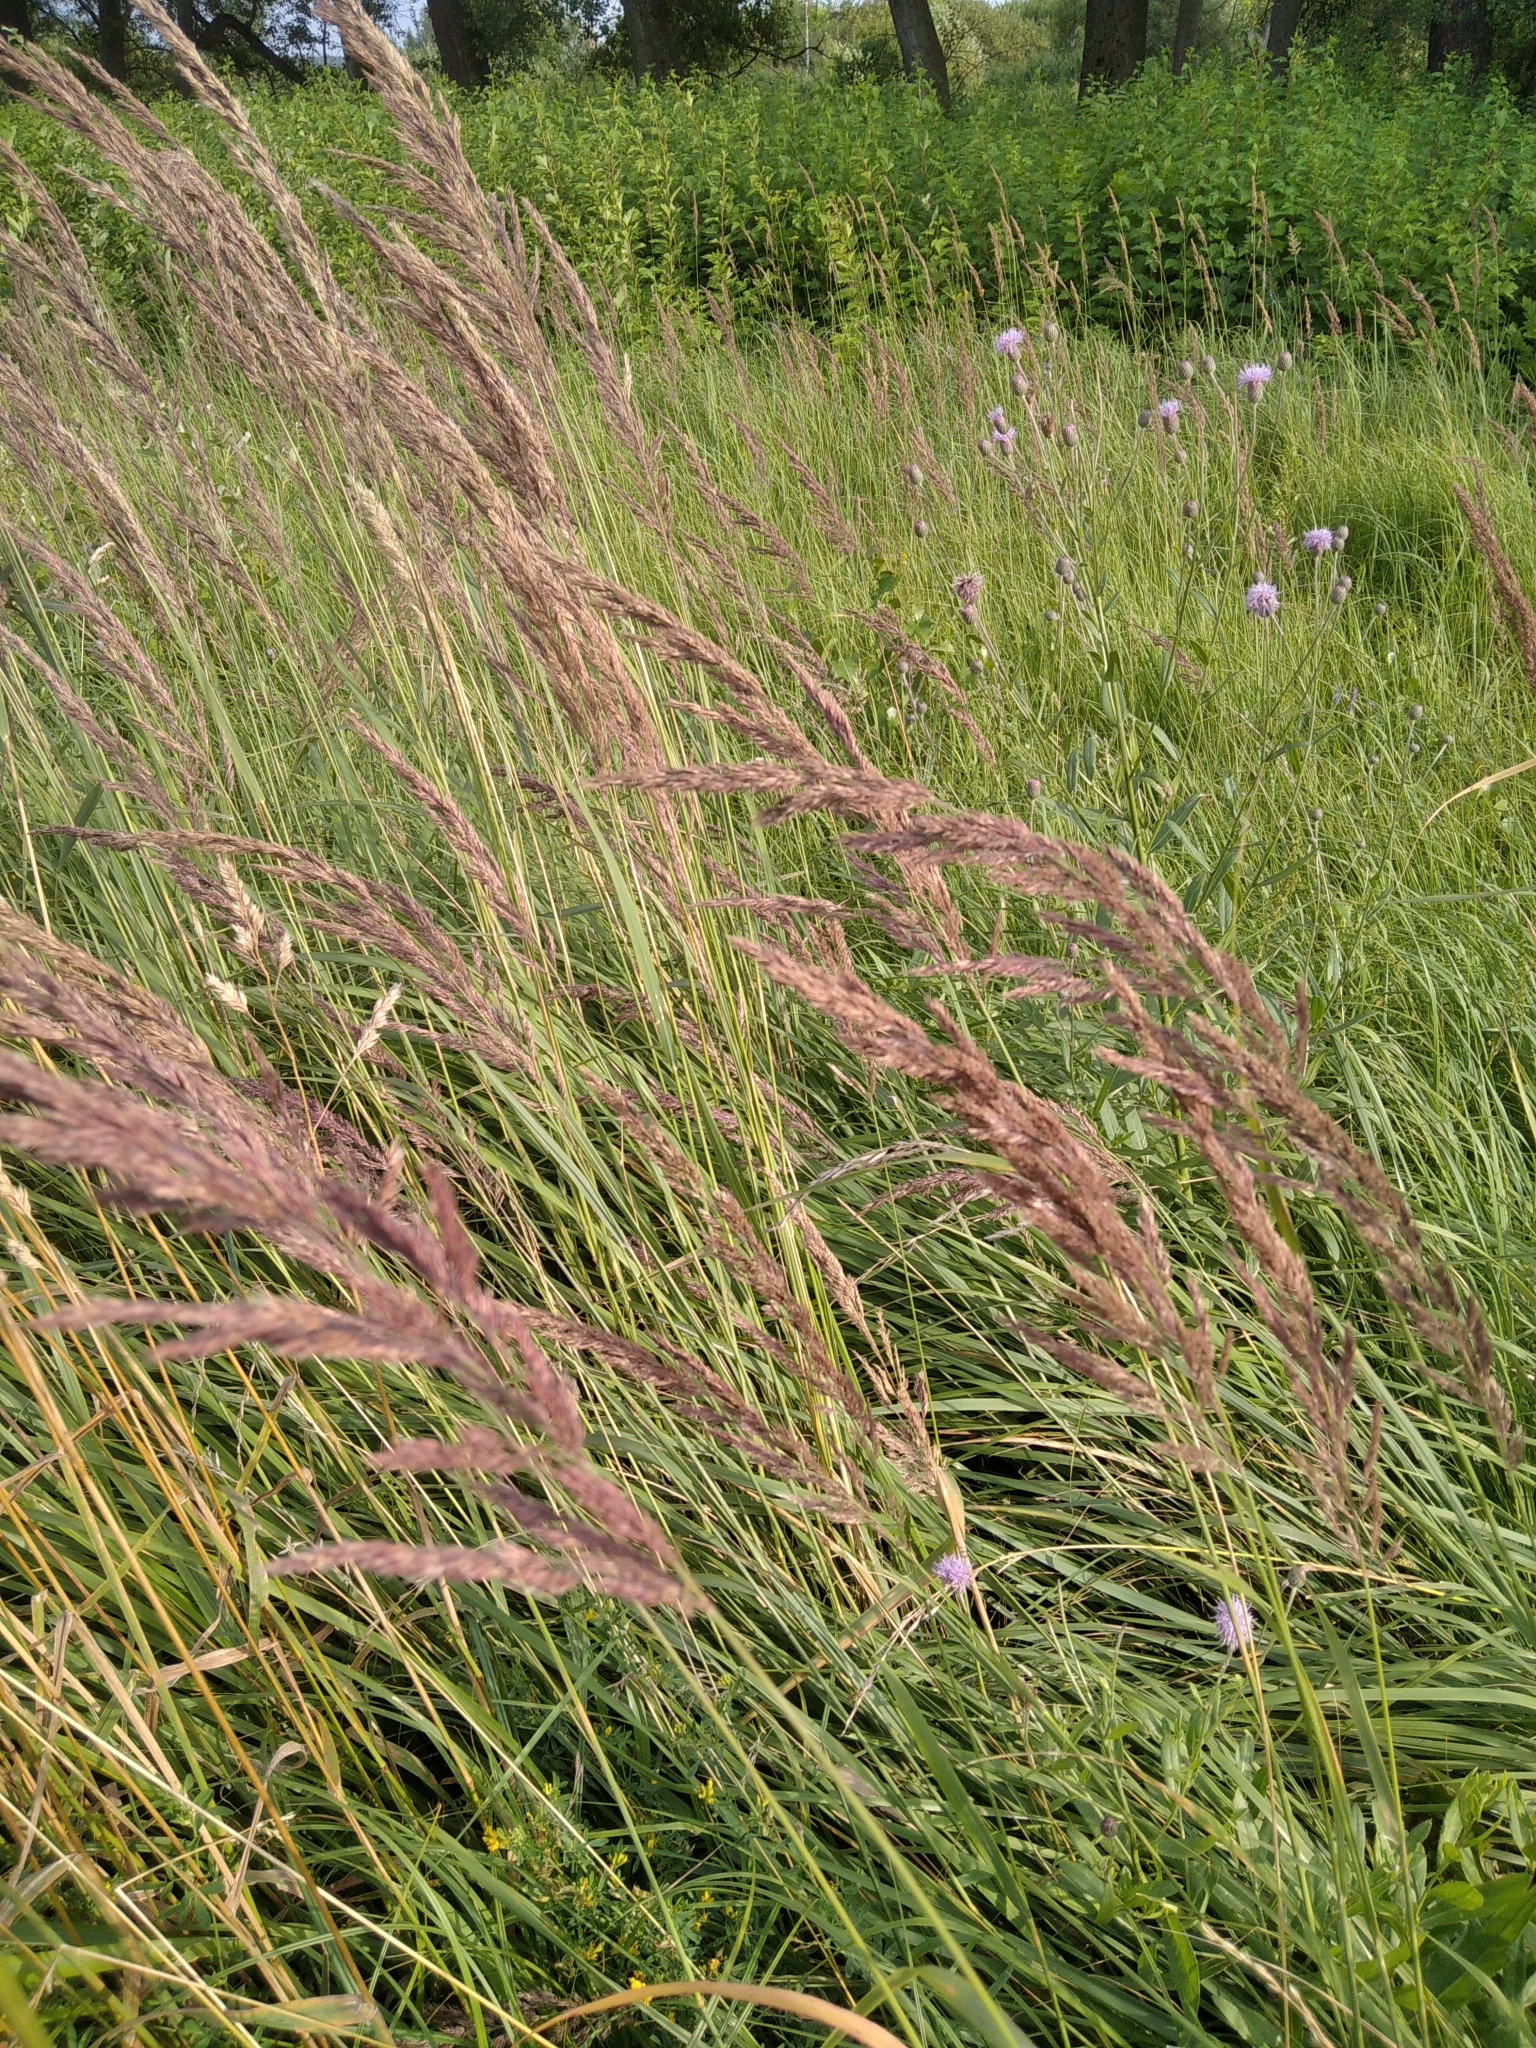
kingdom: Plantae
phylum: Tracheophyta
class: Liliopsida
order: Poales
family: Poaceae
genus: Calamagrostis
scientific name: Calamagrostis epigejos
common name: Wood small-reed
